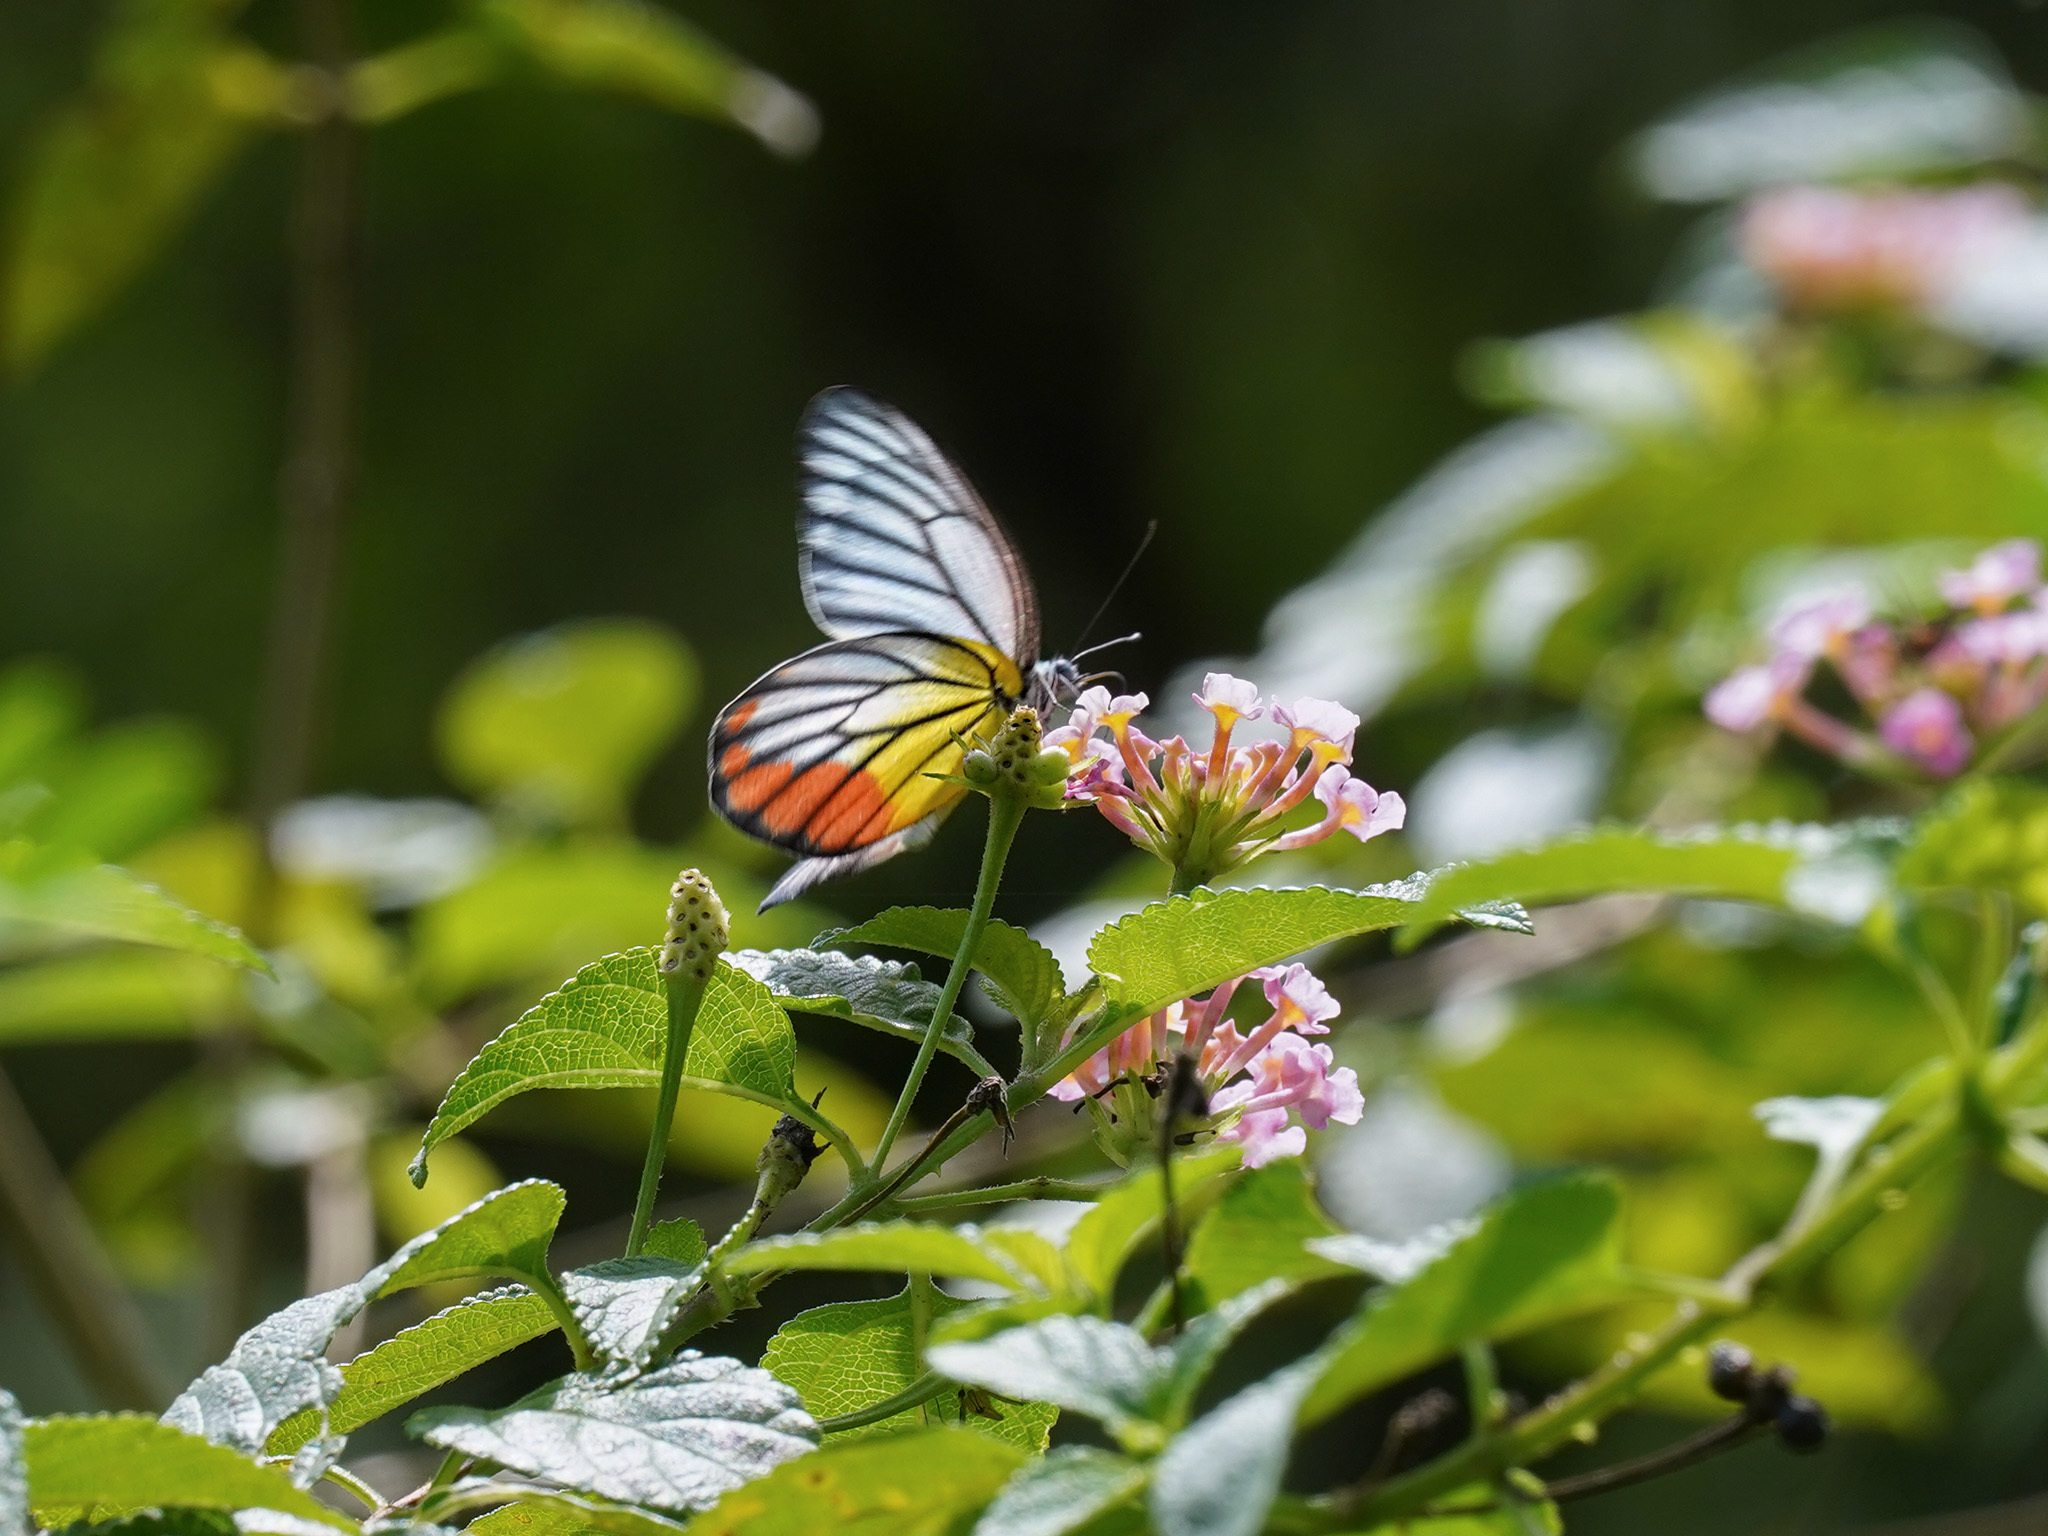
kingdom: Animalia
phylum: Arthropoda
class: Insecta
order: Lepidoptera
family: Pieridae
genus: Delias
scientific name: Delias hyparete
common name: Painted jezebel
